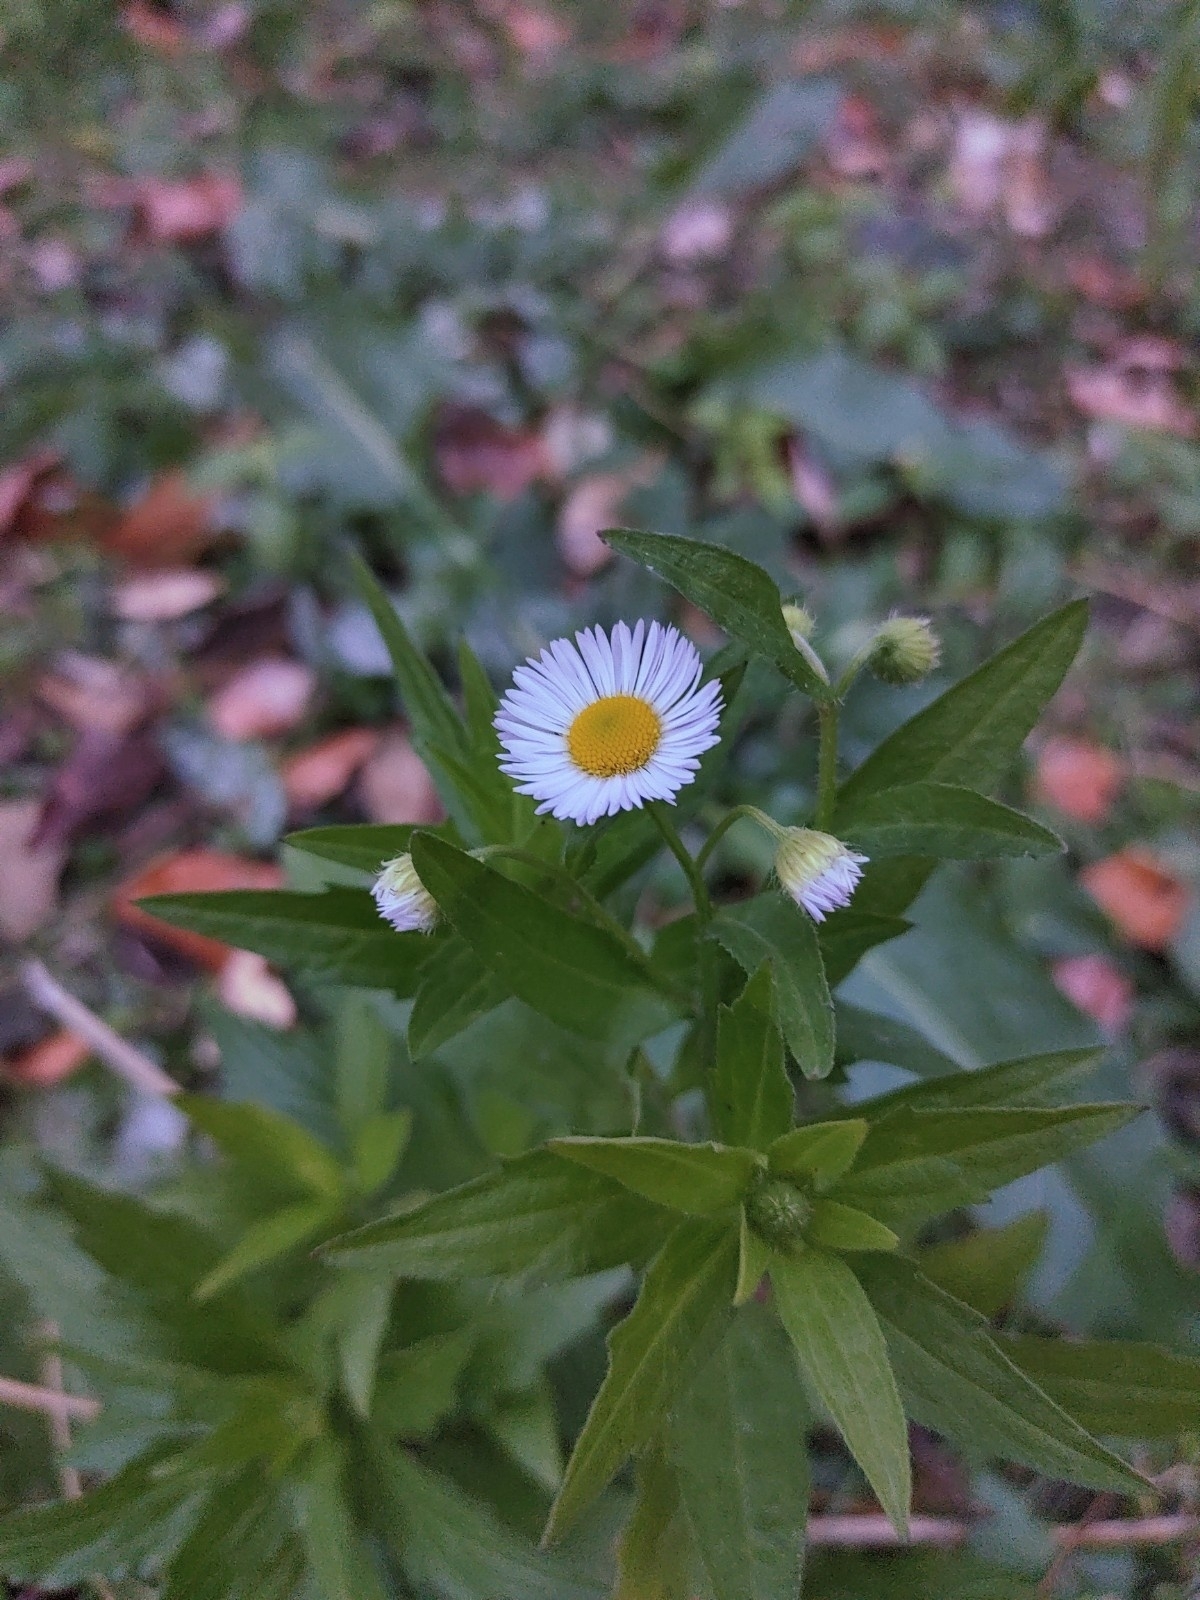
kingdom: Plantae
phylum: Tracheophyta
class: Magnoliopsida
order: Asterales
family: Asteraceae
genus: Erigeron
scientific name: Erigeron annuus
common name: Tall fleabane
